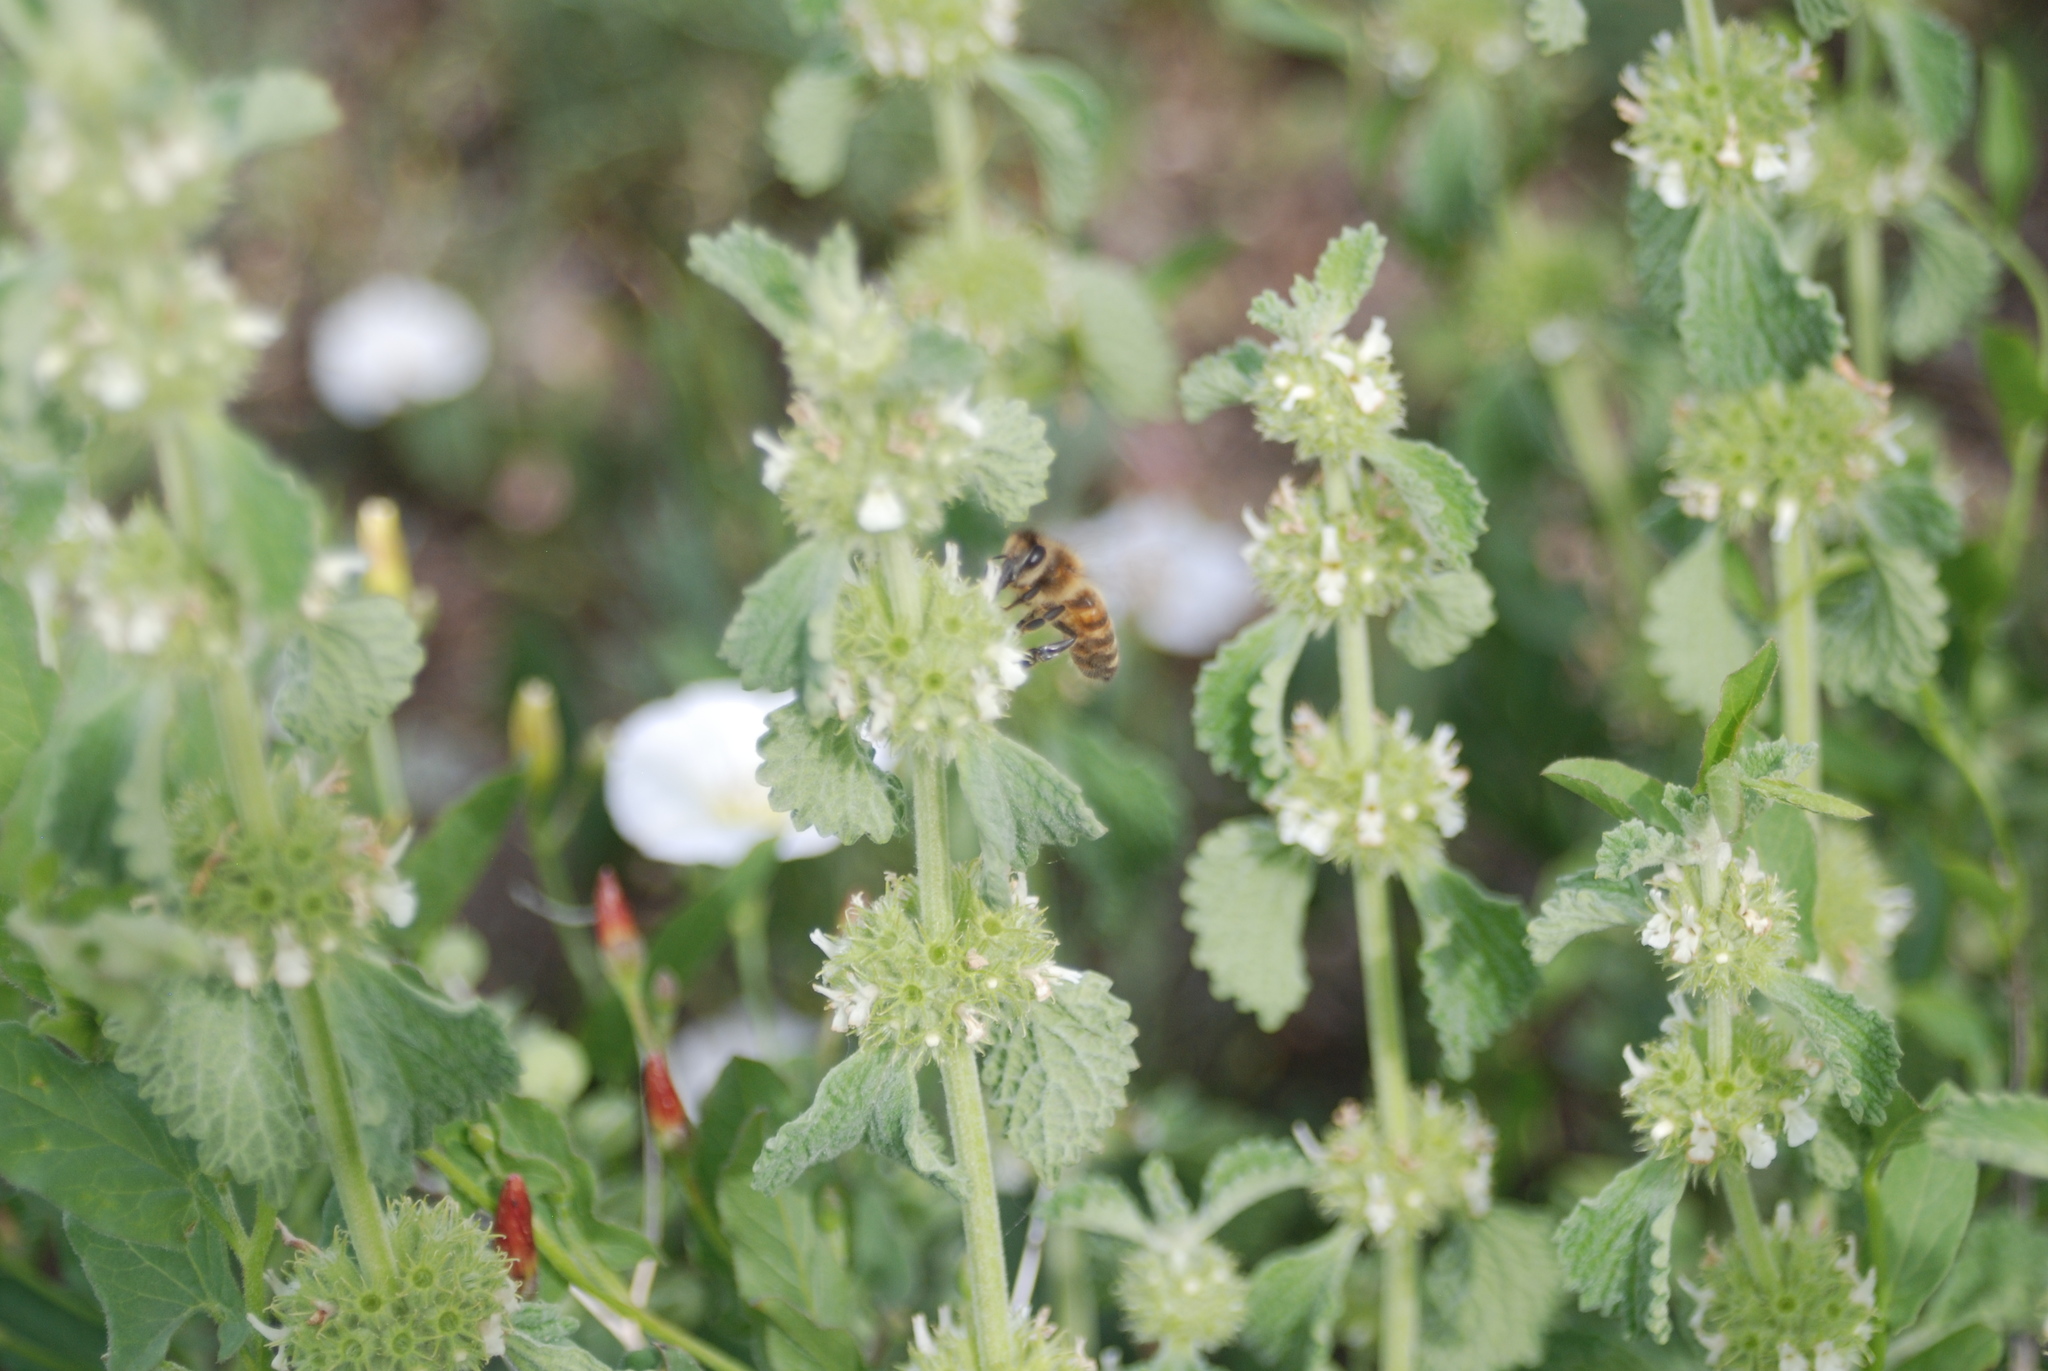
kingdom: Plantae
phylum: Tracheophyta
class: Magnoliopsida
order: Lamiales
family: Lamiaceae
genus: Marrubium
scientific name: Marrubium vulgare
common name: Horehound
